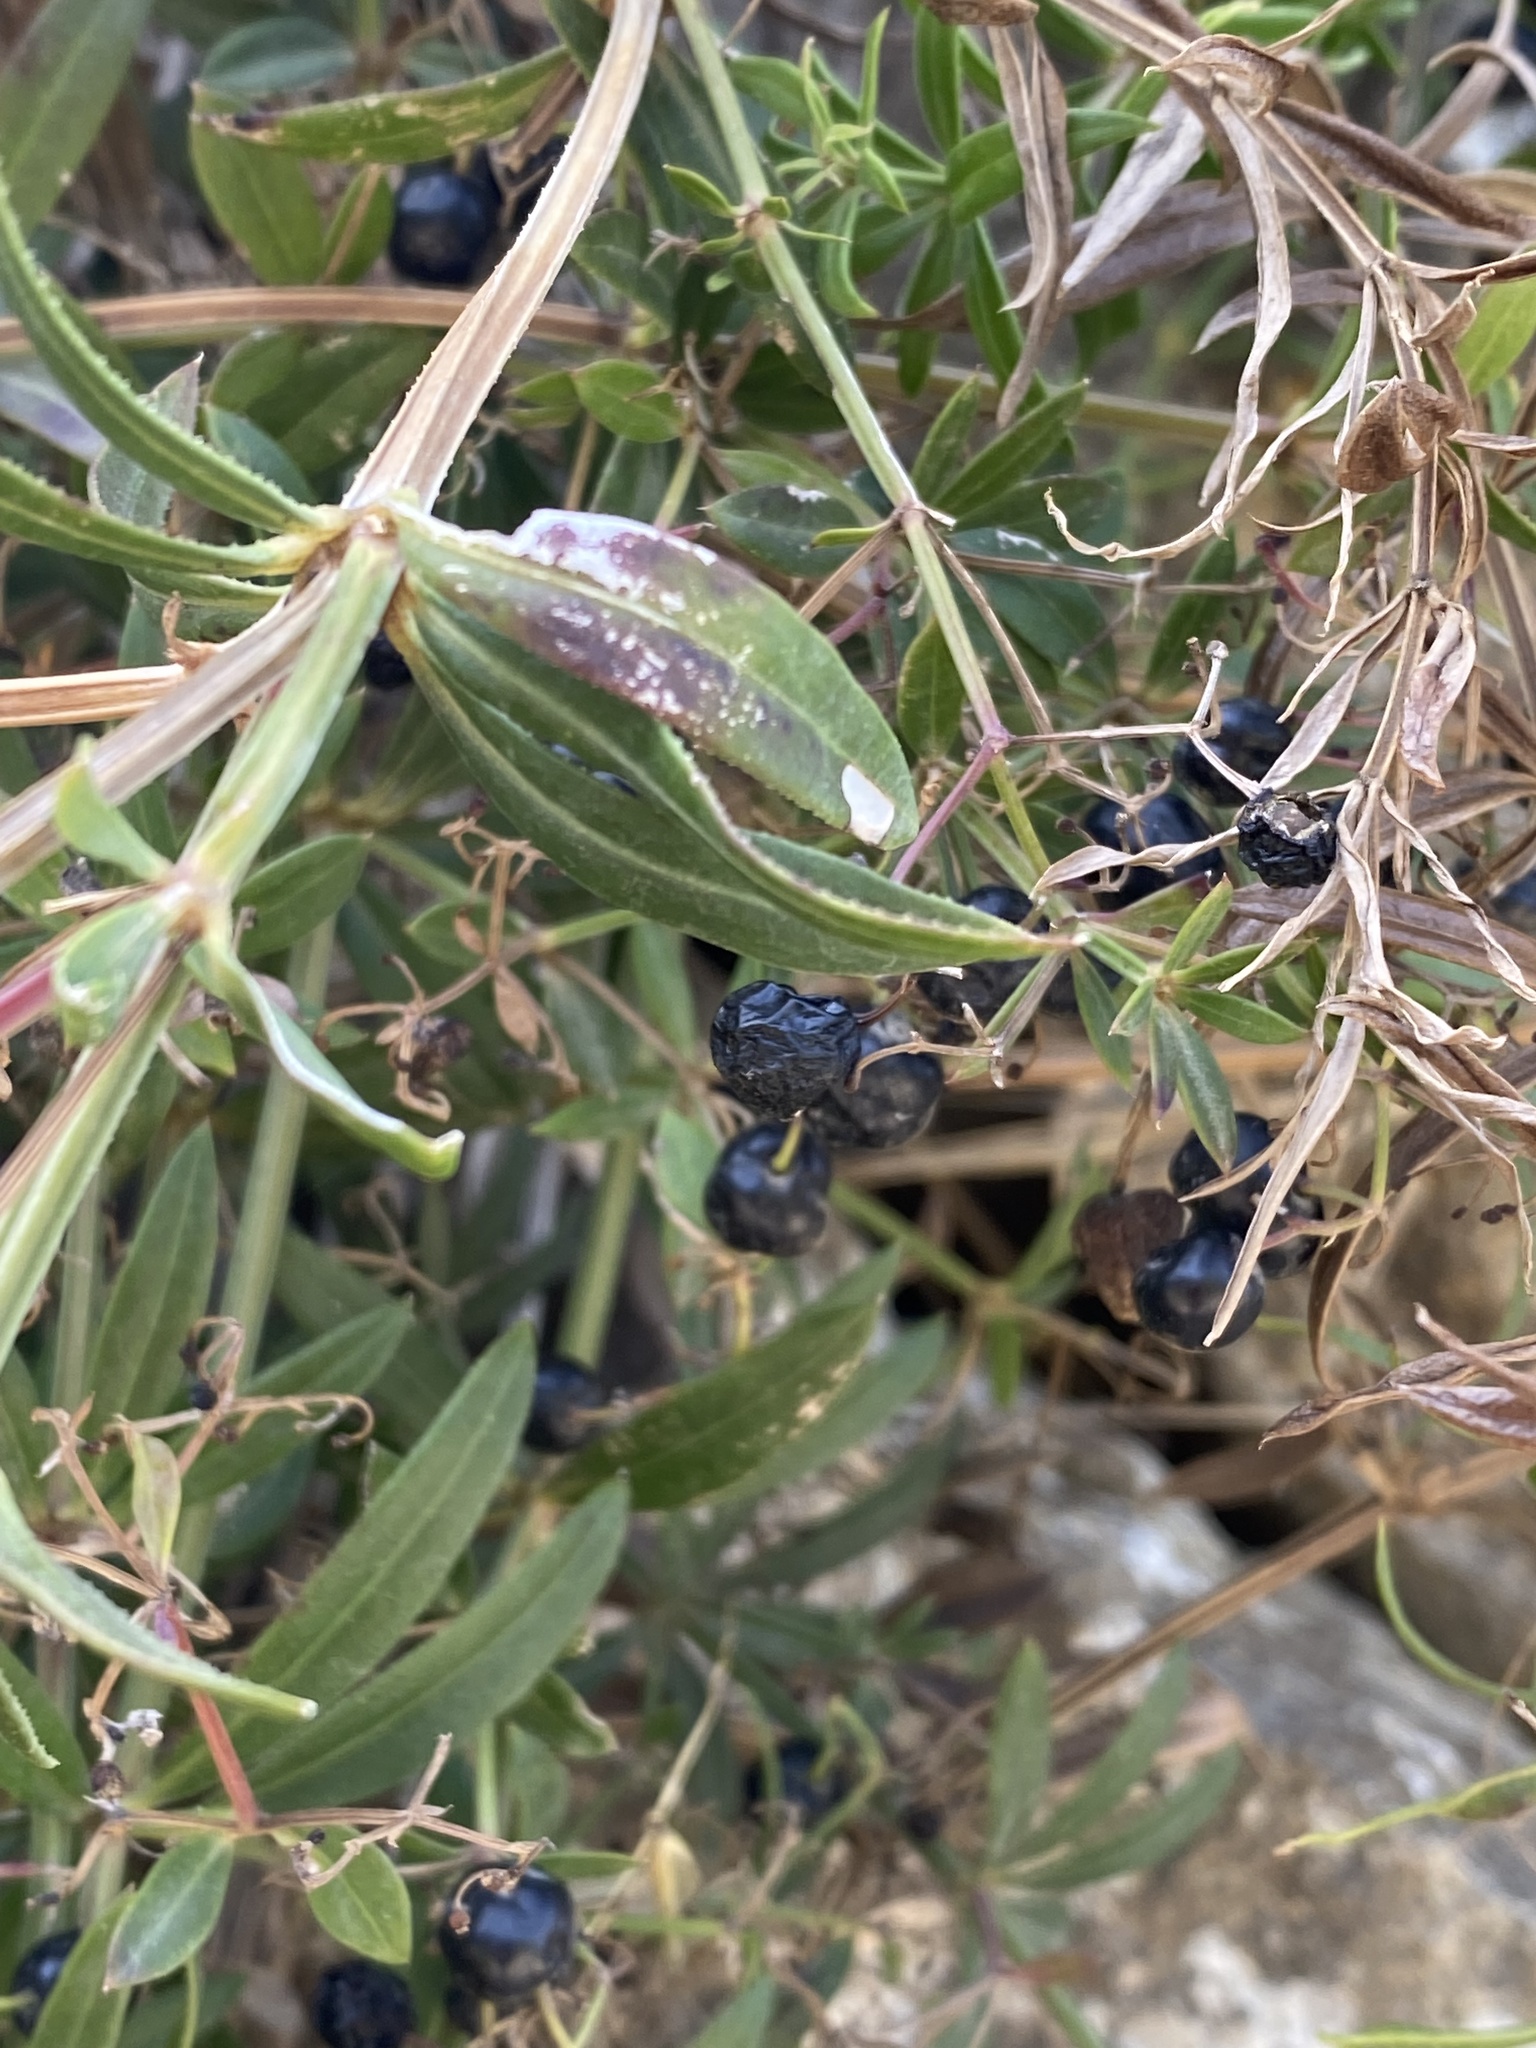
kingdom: Plantae
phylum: Tracheophyta
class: Magnoliopsida
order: Gentianales
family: Rubiaceae
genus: Rubia
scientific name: Rubia peregrina
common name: Wild madder
